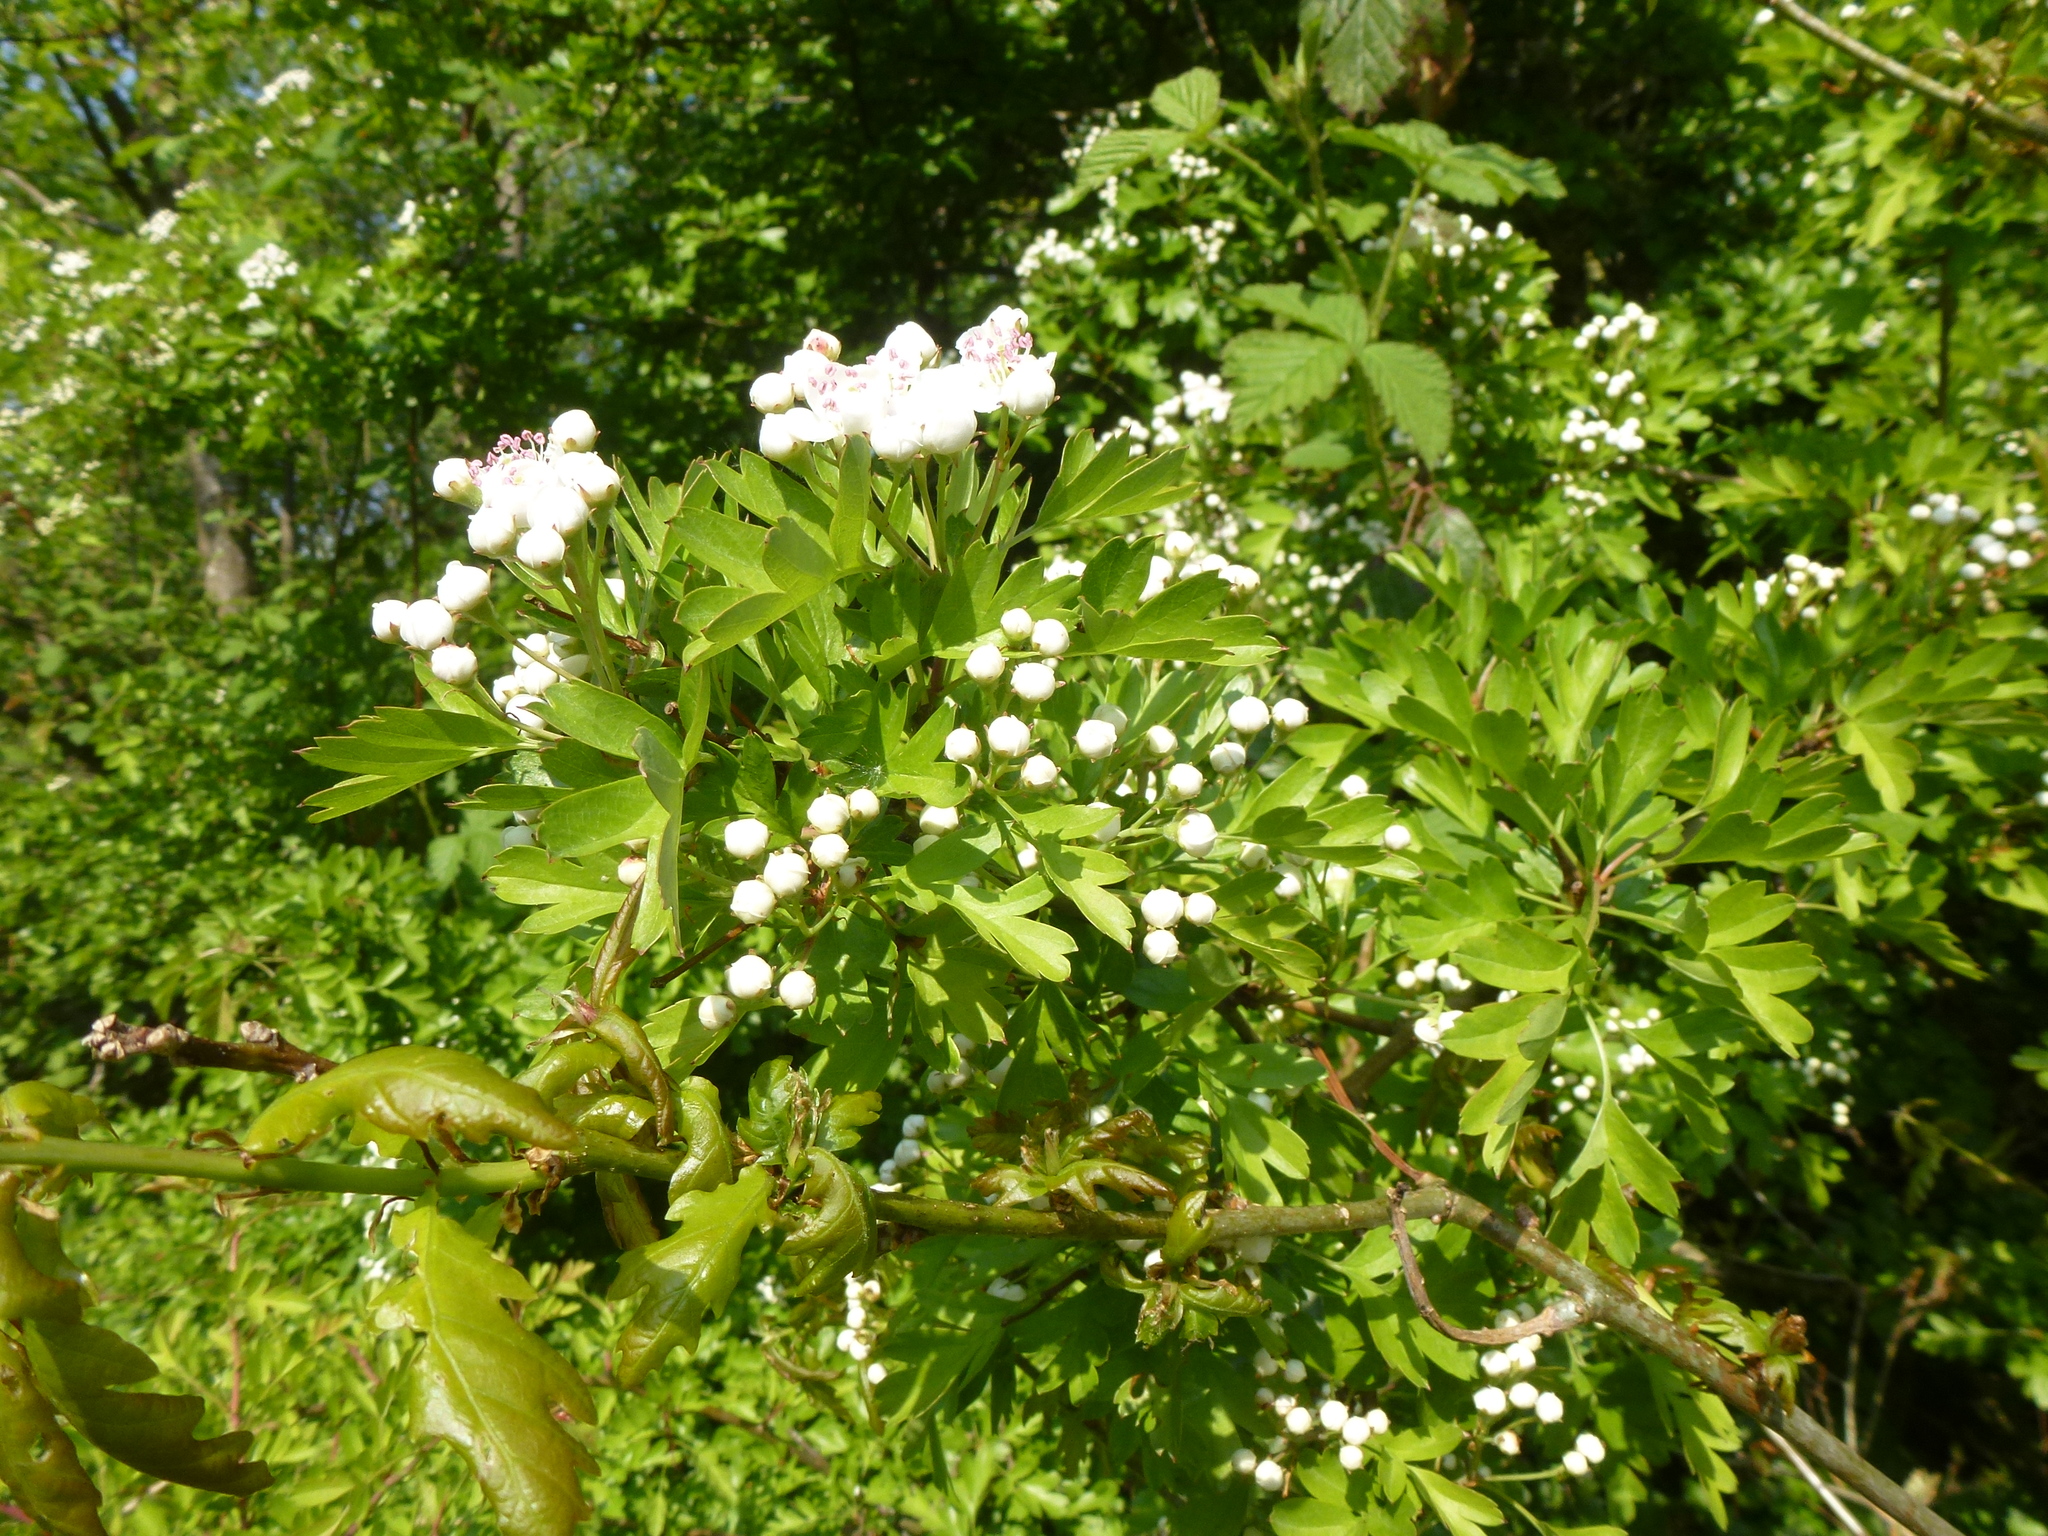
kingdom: Plantae
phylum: Tracheophyta
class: Magnoliopsida
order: Rosales
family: Rosaceae
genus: Crataegus
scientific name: Crataegus monogyna
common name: Hawthorn
